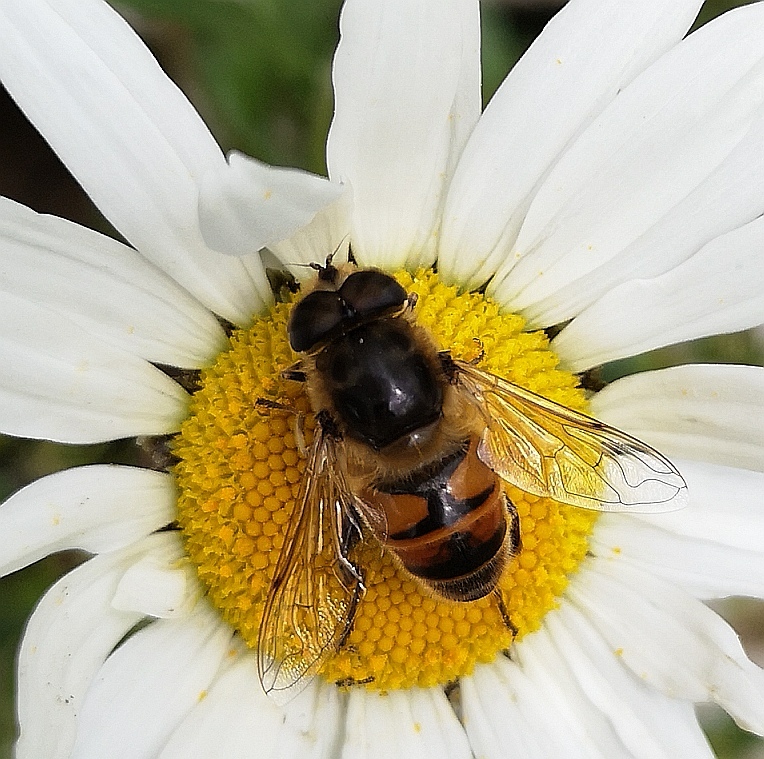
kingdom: Animalia
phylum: Arthropoda
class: Insecta
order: Diptera
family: Syrphidae
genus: Eristalis
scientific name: Eristalis tenax
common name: Drone fly
